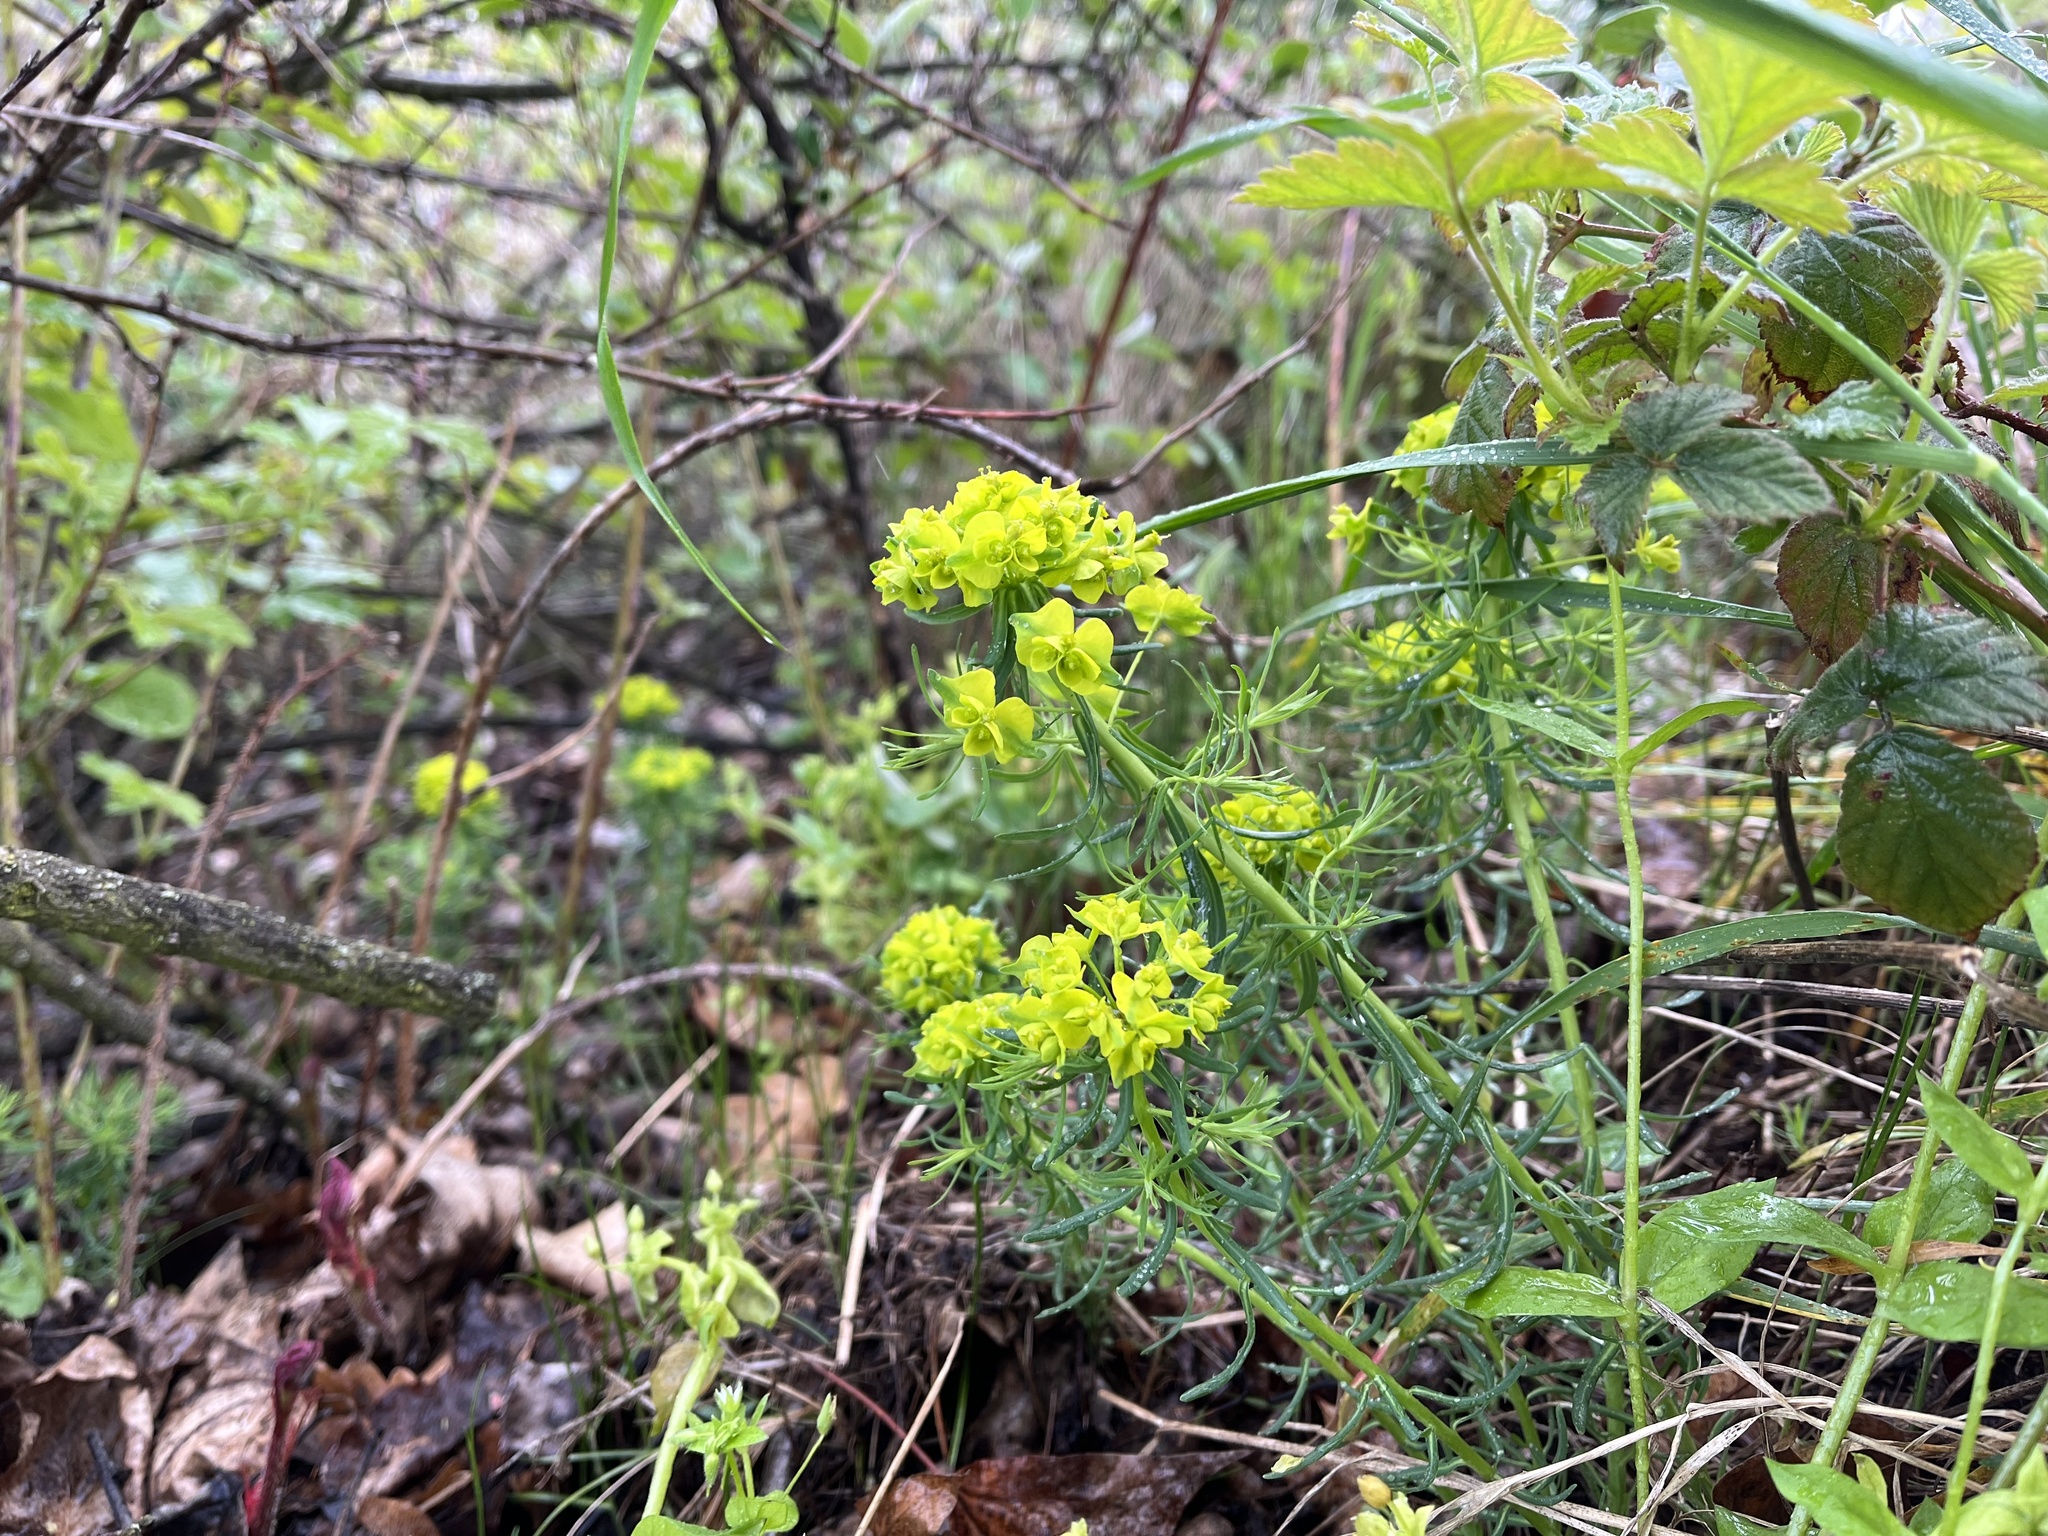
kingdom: Plantae
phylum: Tracheophyta
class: Magnoliopsida
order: Malpighiales
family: Euphorbiaceae
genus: Euphorbia
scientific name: Euphorbia cyparissias
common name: Cypress spurge
